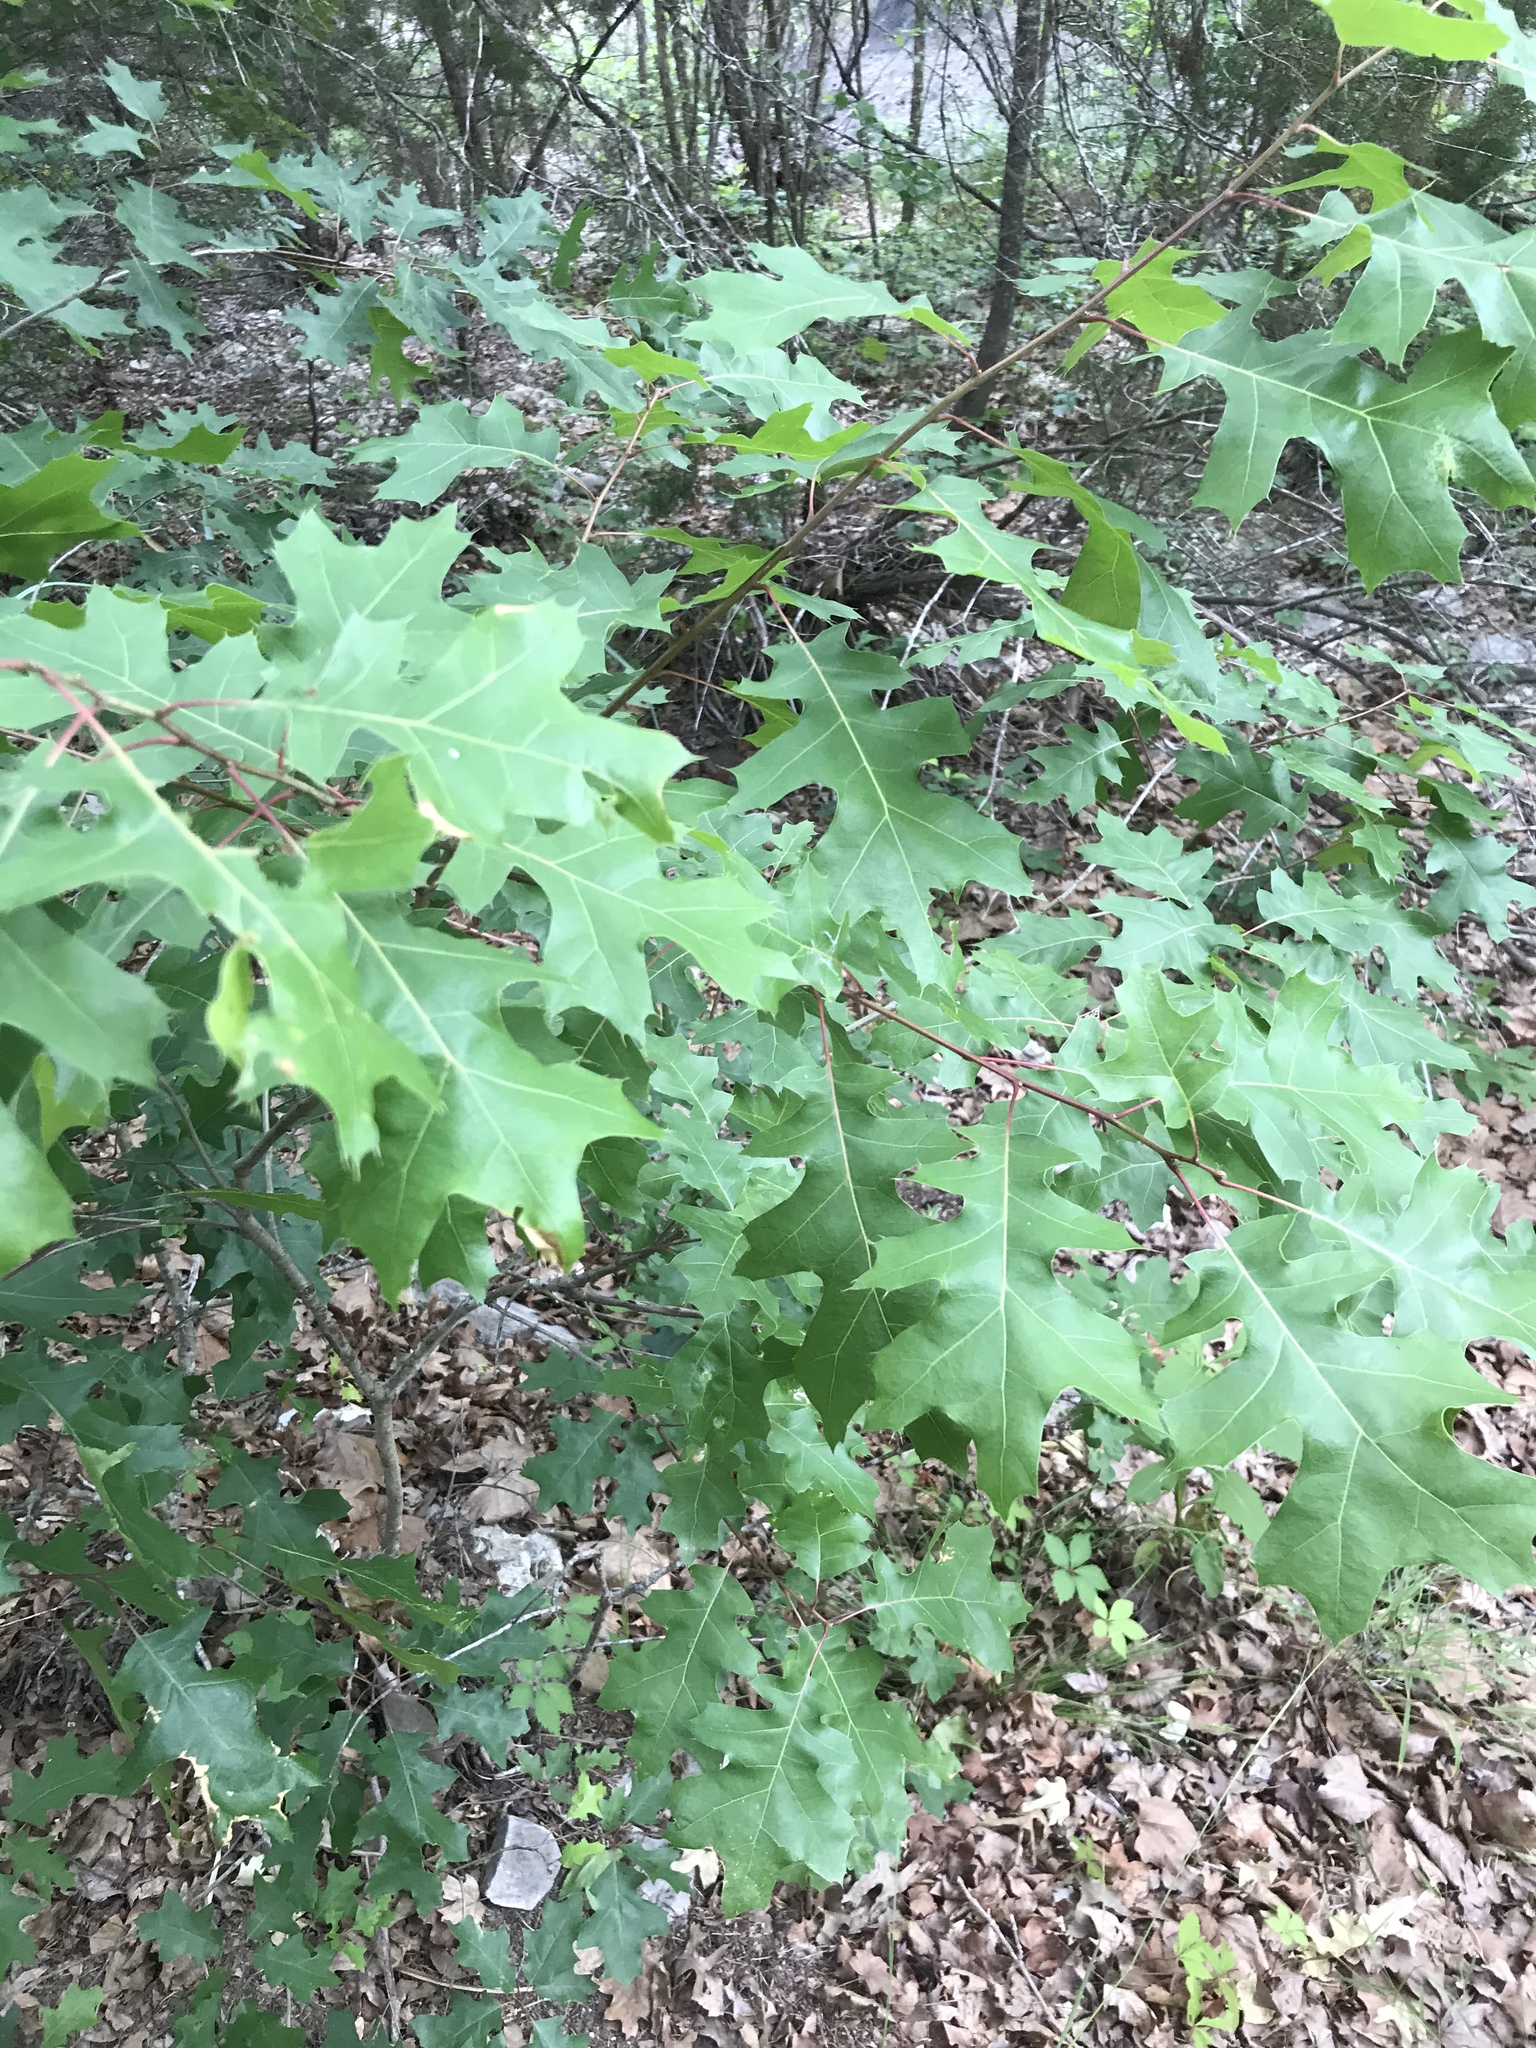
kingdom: Plantae
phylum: Tracheophyta
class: Magnoliopsida
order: Fagales
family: Fagaceae
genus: Quercus
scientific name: Quercus buckleyi
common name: Buckley oak
